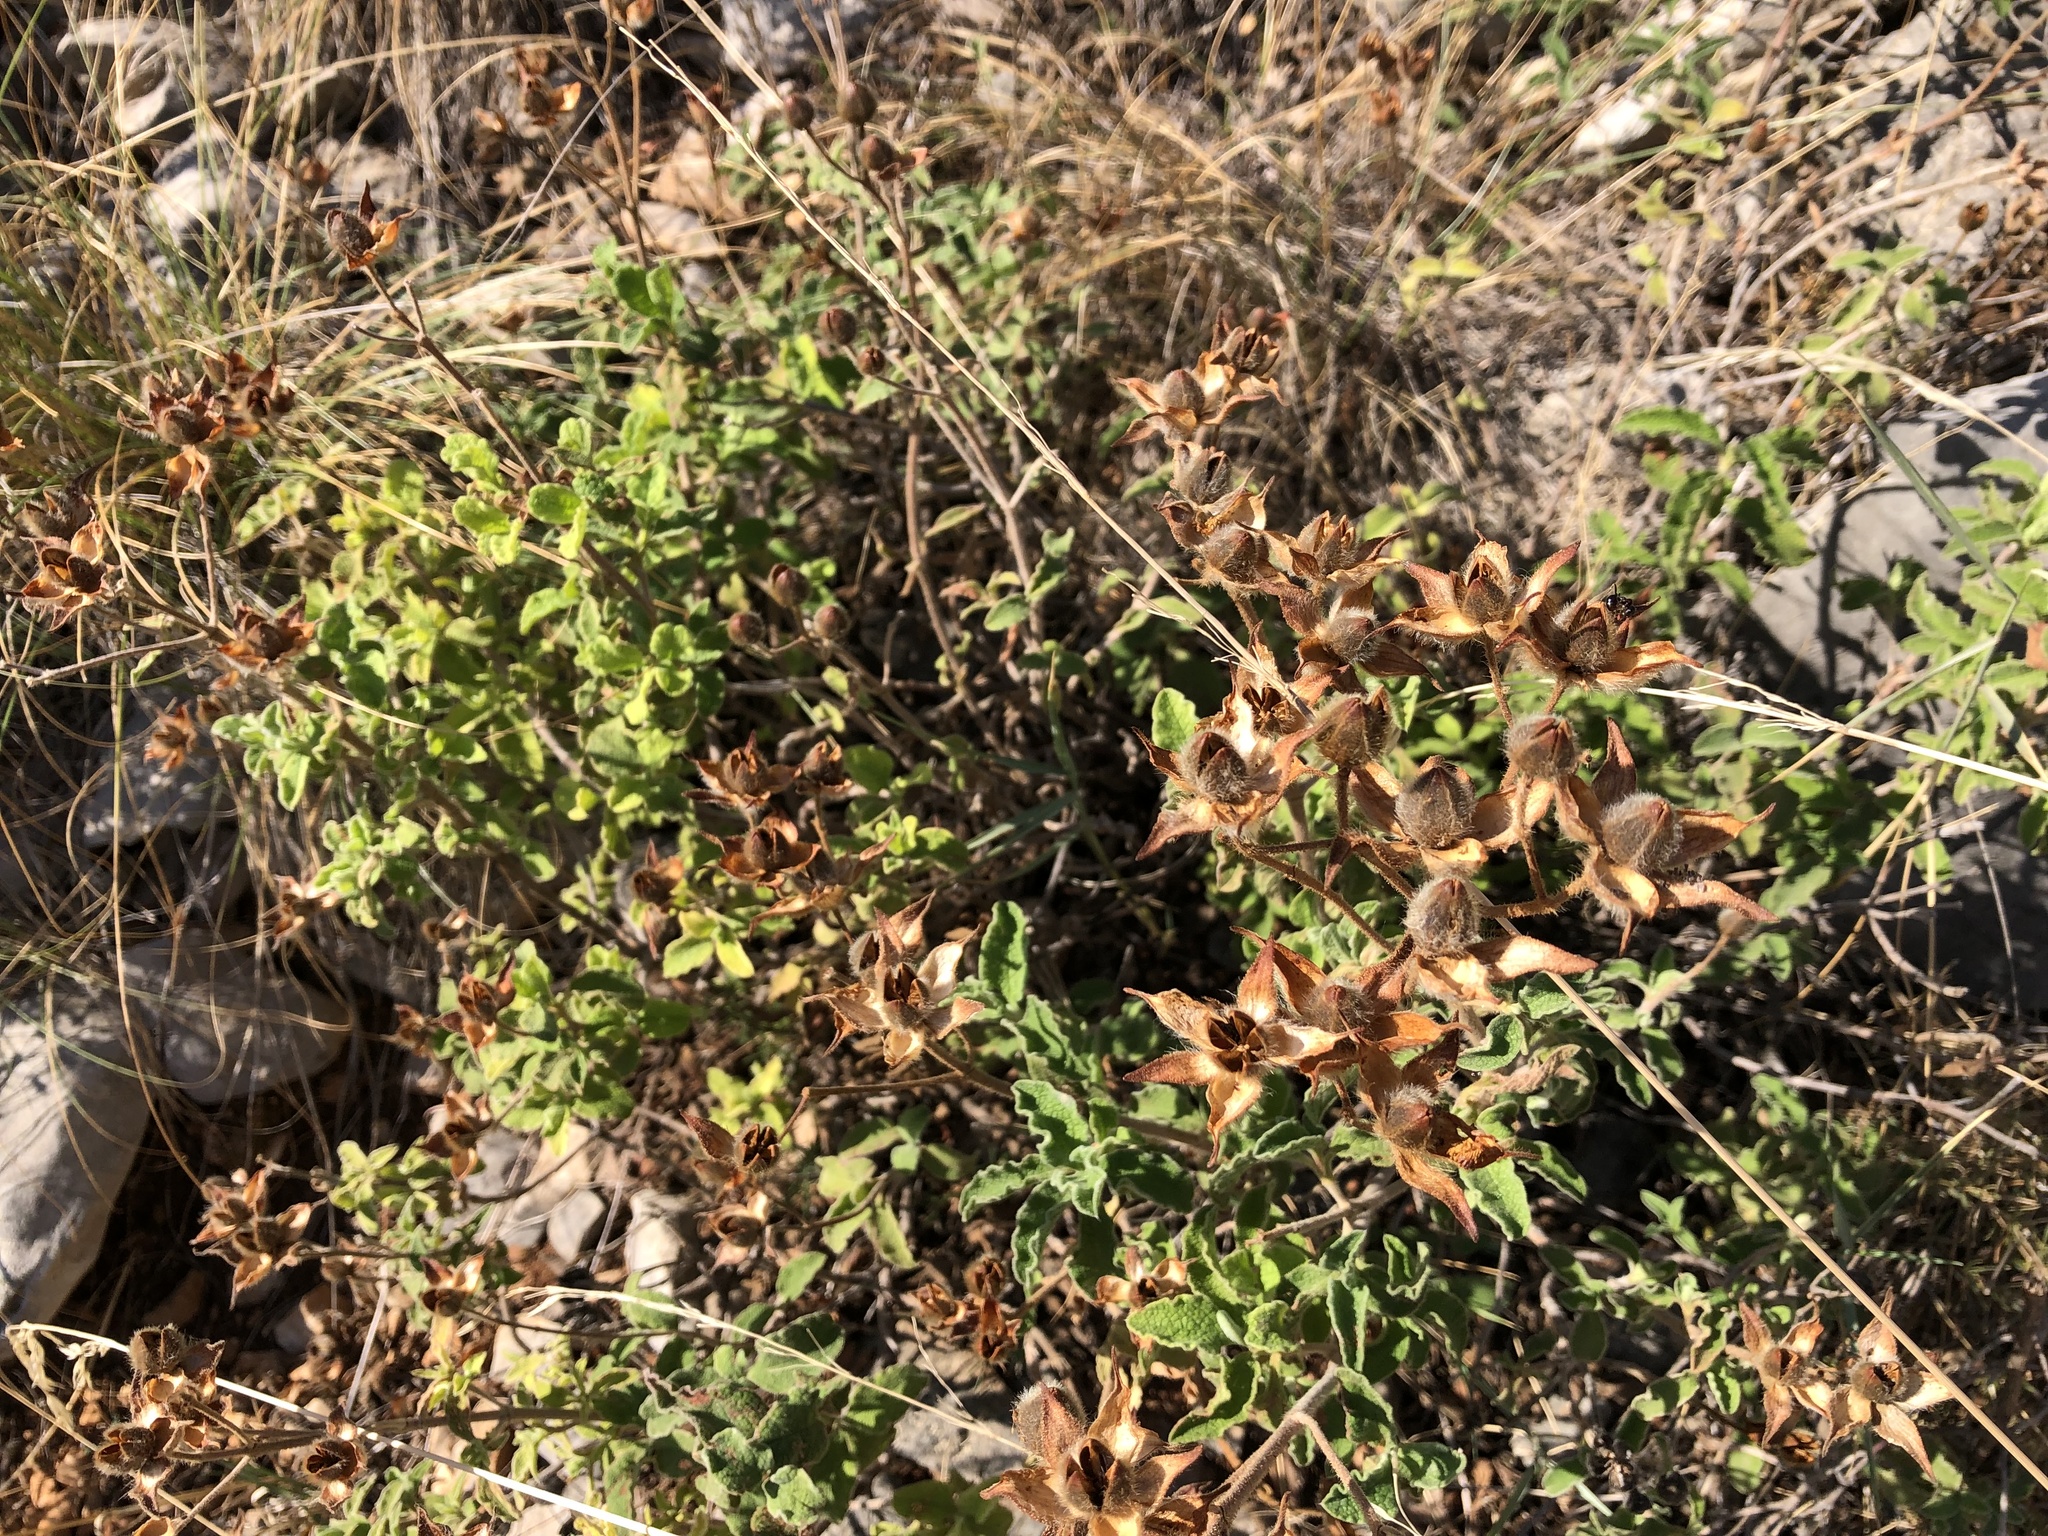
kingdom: Plantae
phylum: Tracheophyta
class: Magnoliopsida
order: Malvales
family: Cistaceae
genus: Cistus
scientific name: Cistus creticus
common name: Cretan rockrose
